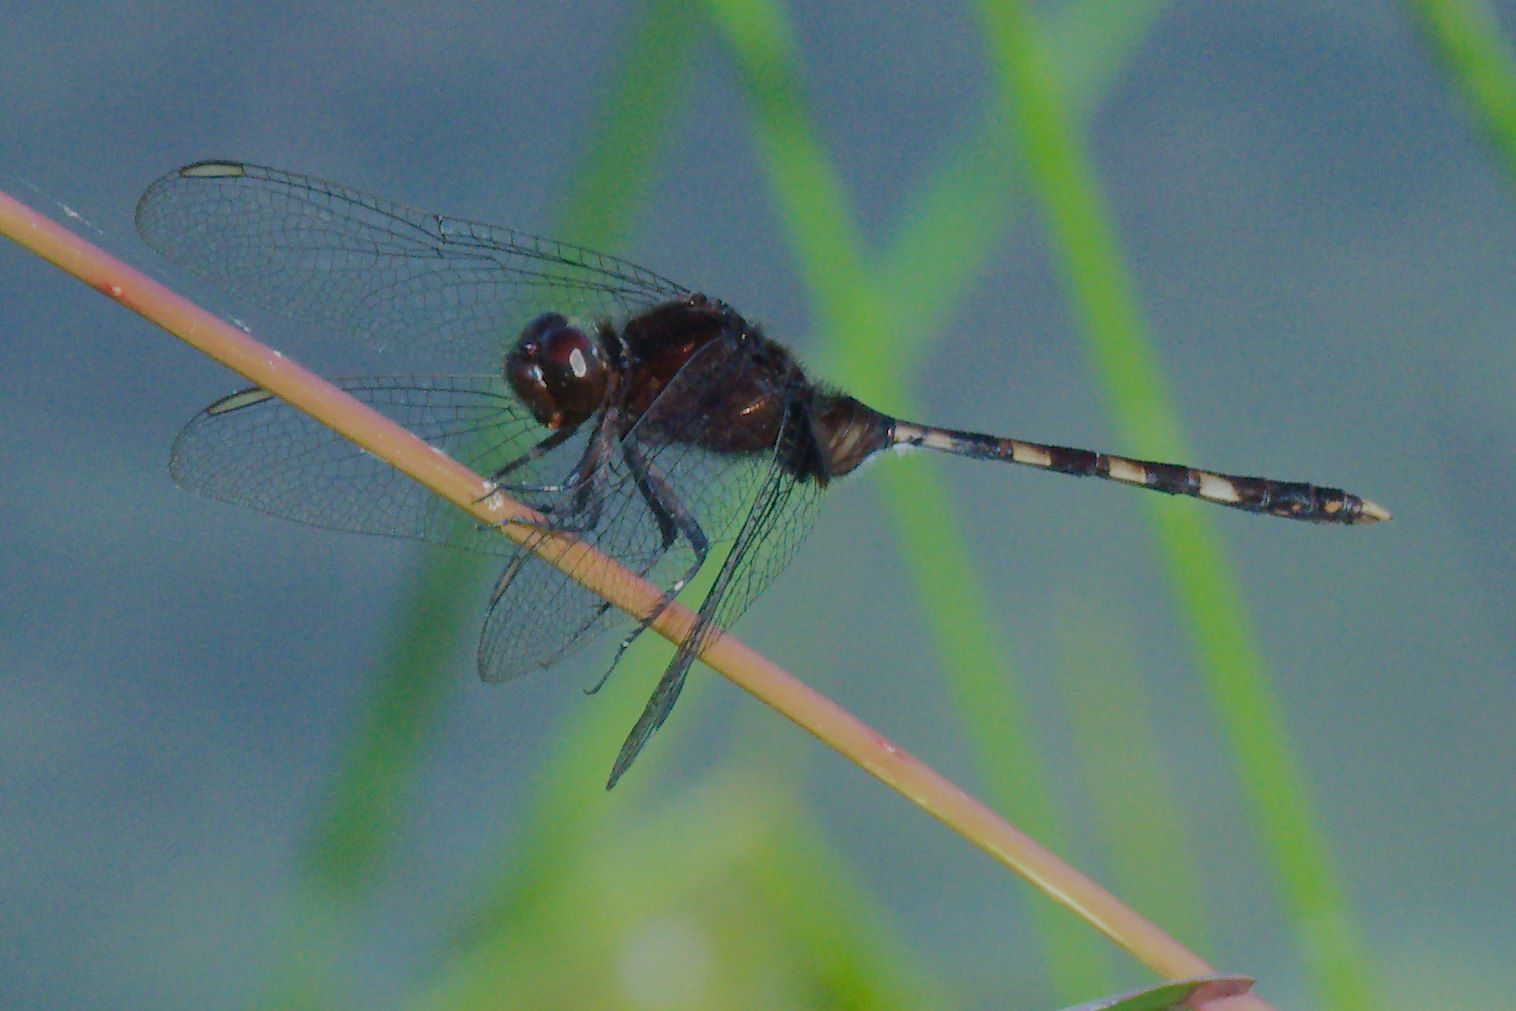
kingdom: Animalia
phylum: Arthropoda
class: Insecta
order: Odonata
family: Libellulidae
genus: Erythemis
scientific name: Erythemis plebeja
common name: Pin-tailed pondhawk
